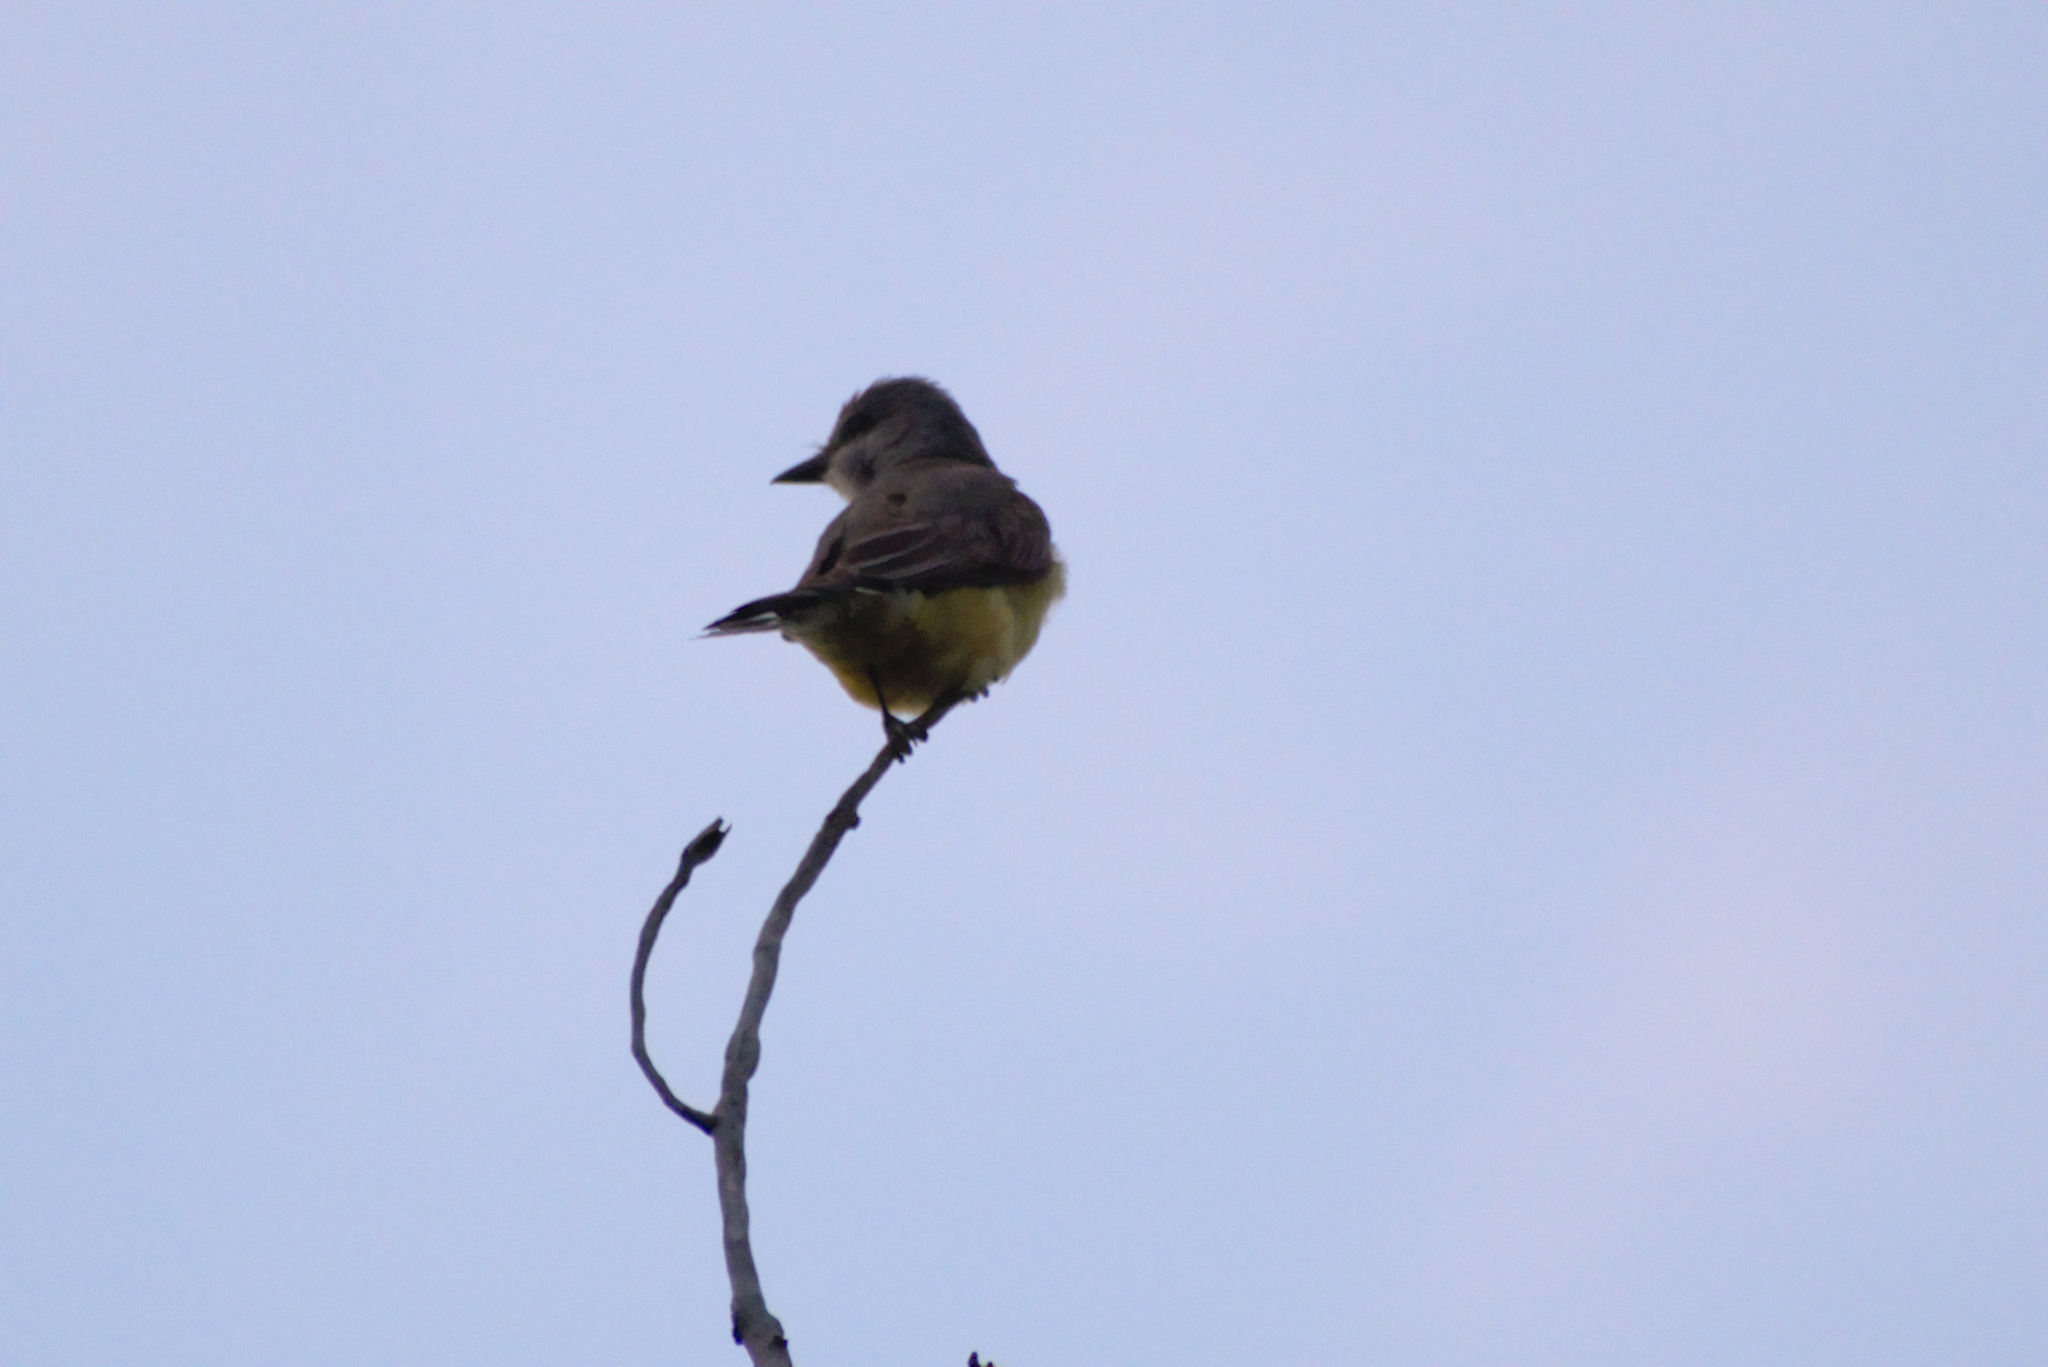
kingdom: Animalia
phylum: Chordata
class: Aves
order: Passeriformes
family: Tyrannidae
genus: Tyrannus
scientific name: Tyrannus verticalis
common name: Western kingbird
